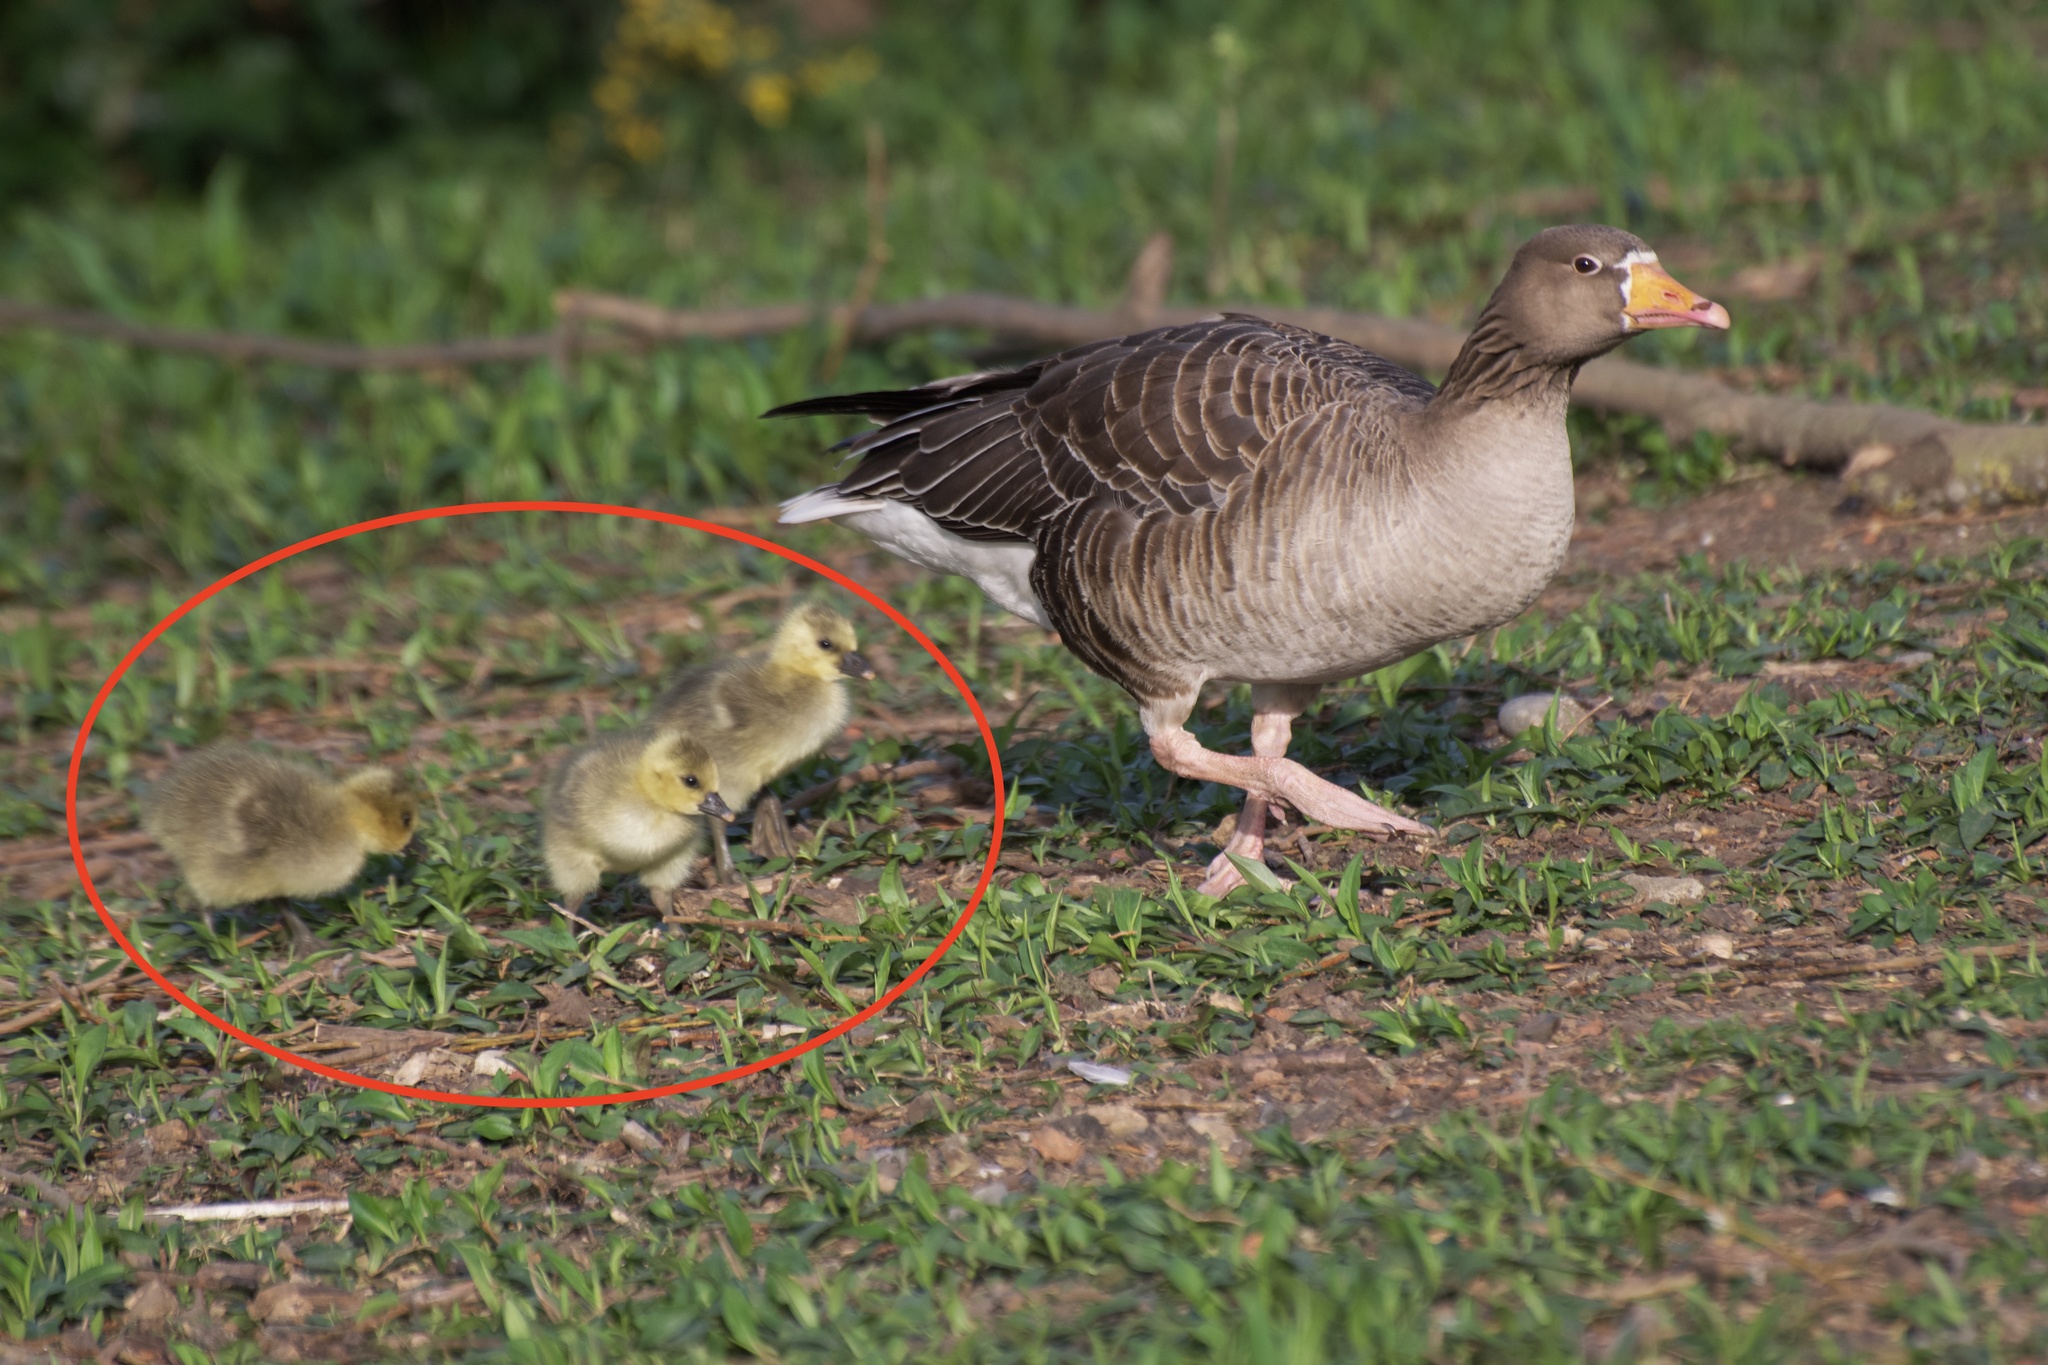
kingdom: Animalia
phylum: Chordata
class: Aves
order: Anseriformes
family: Anatidae
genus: Anser
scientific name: Anser anser
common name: Greylag goose
